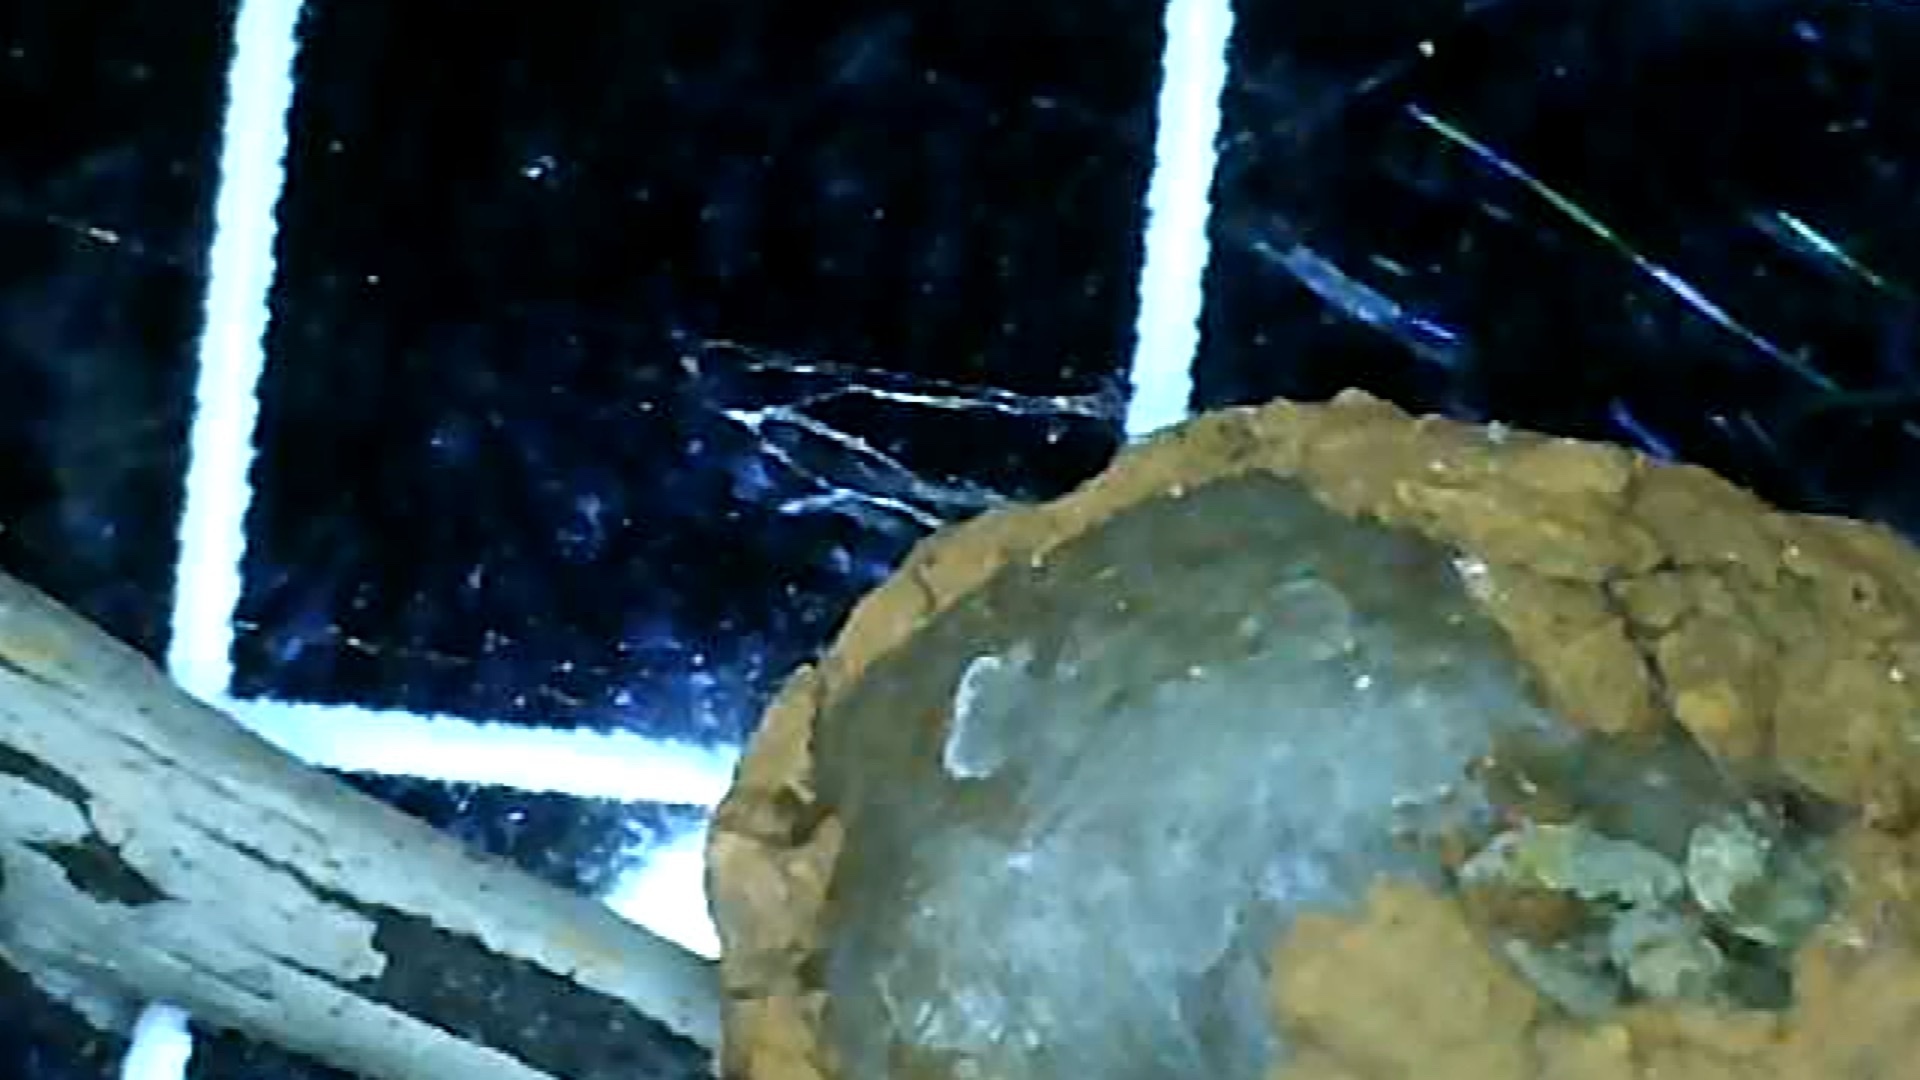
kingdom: Animalia
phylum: Arthropoda
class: Insecta
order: Hymenoptera
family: Vespidae
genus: Eumenes
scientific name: Eumenes
